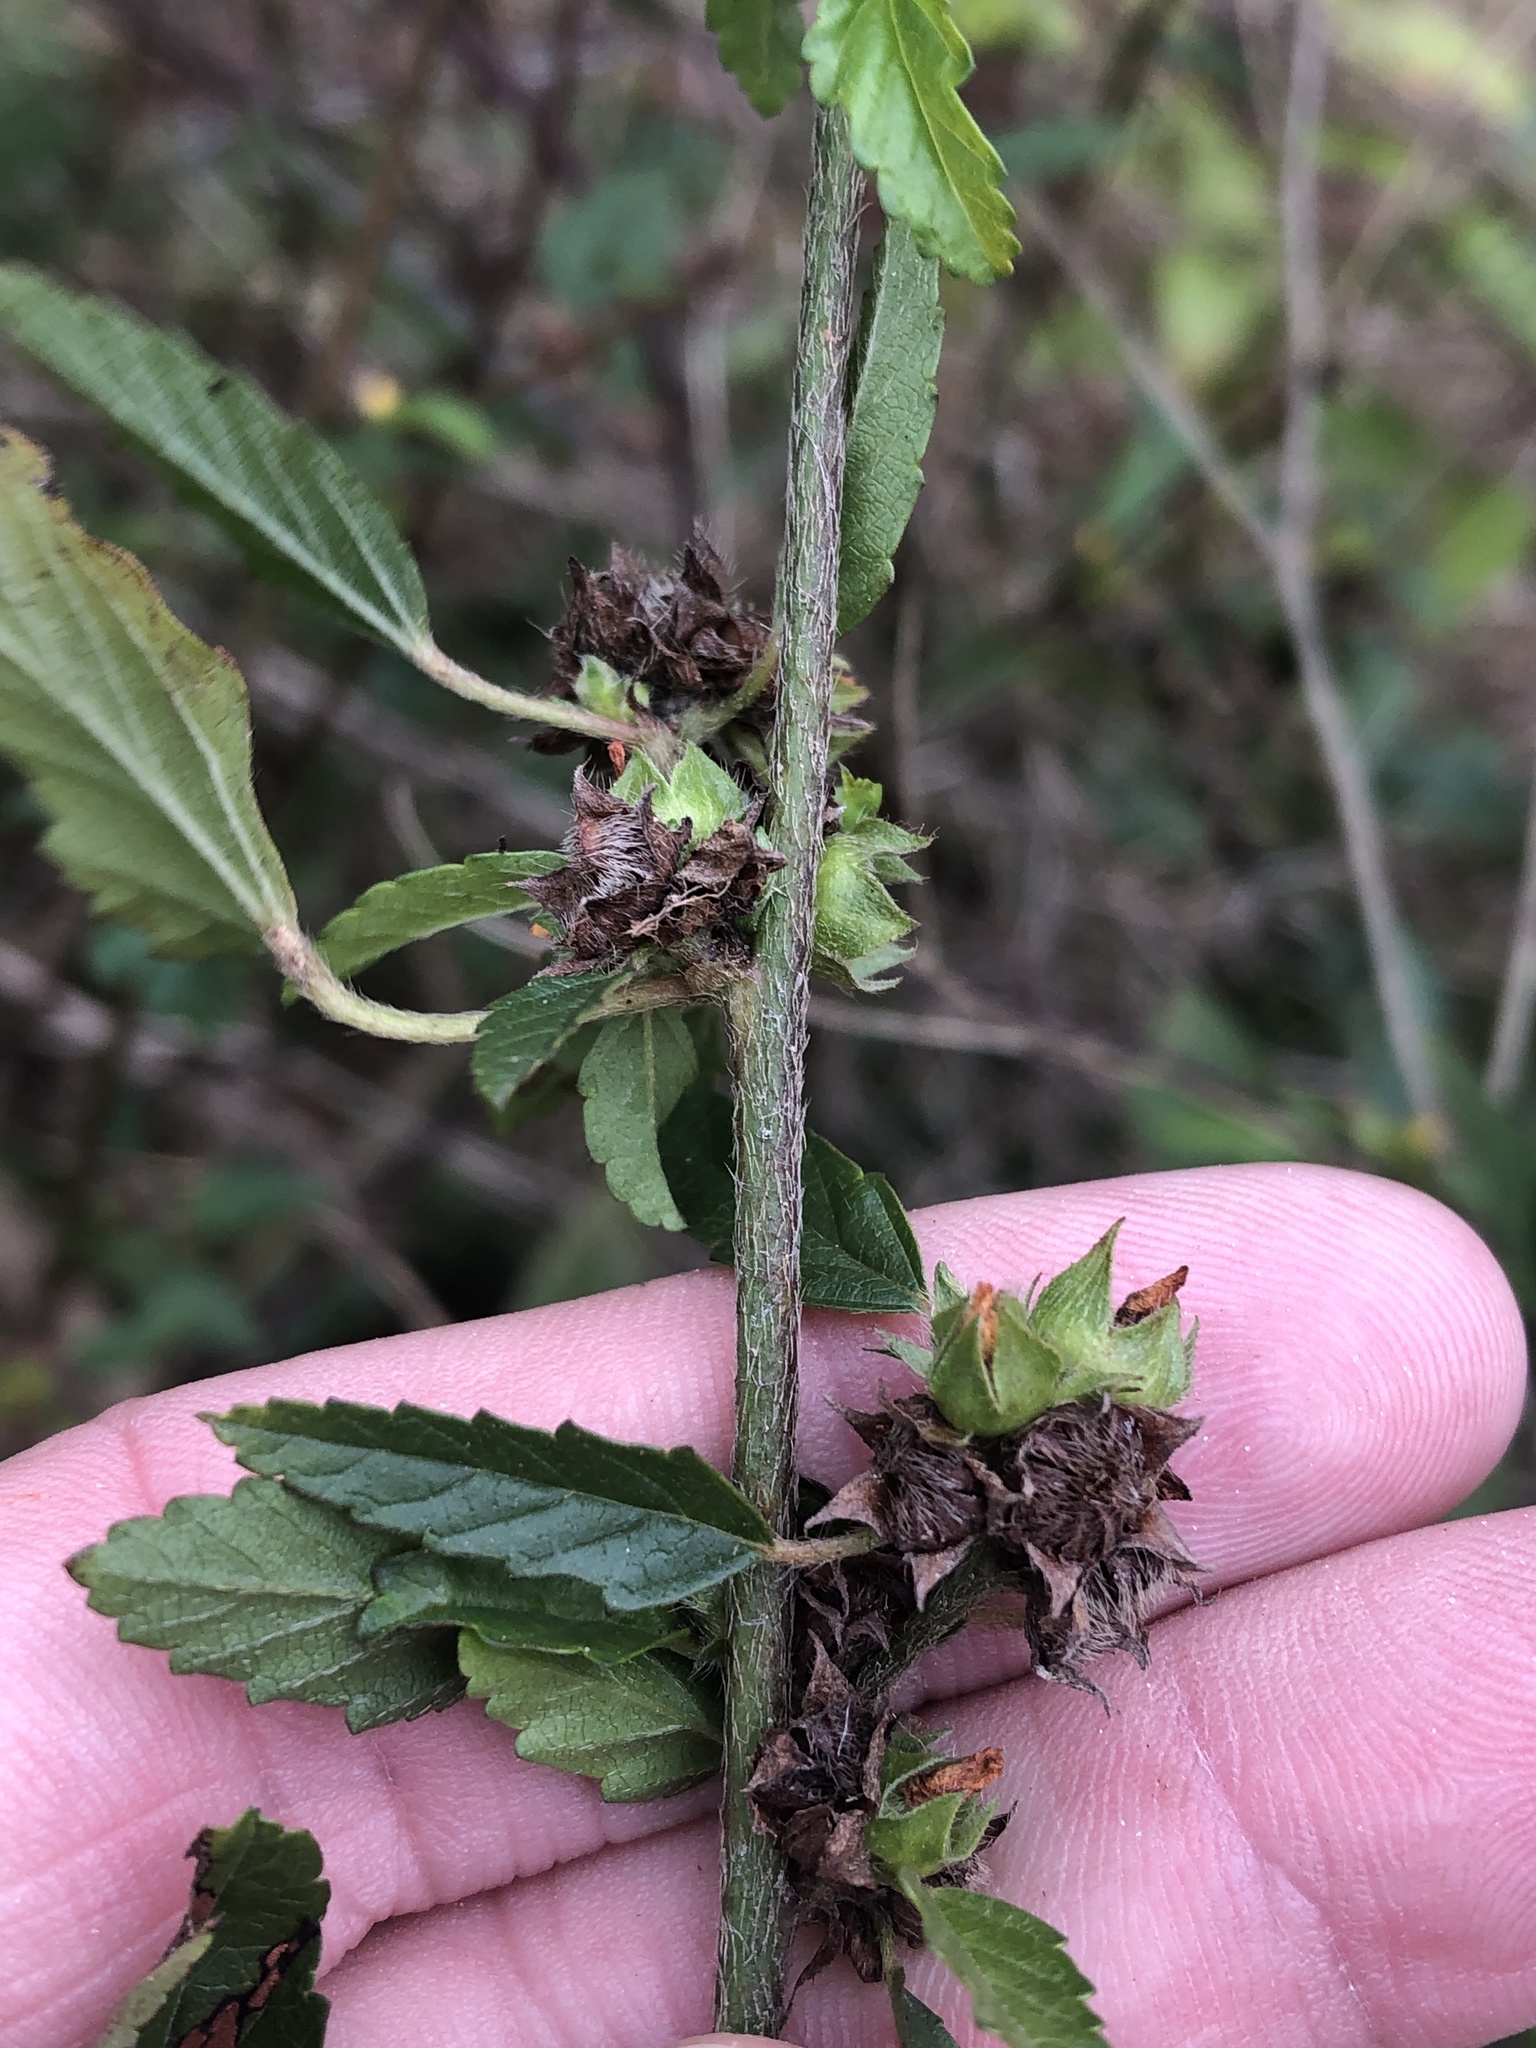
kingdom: Plantae
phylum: Tracheophyta
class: Magnoliopsida
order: Malvales
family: Malvaceae
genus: Malvastrum
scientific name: Malvastrum coromandelianum
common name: Threelobe false mallow
